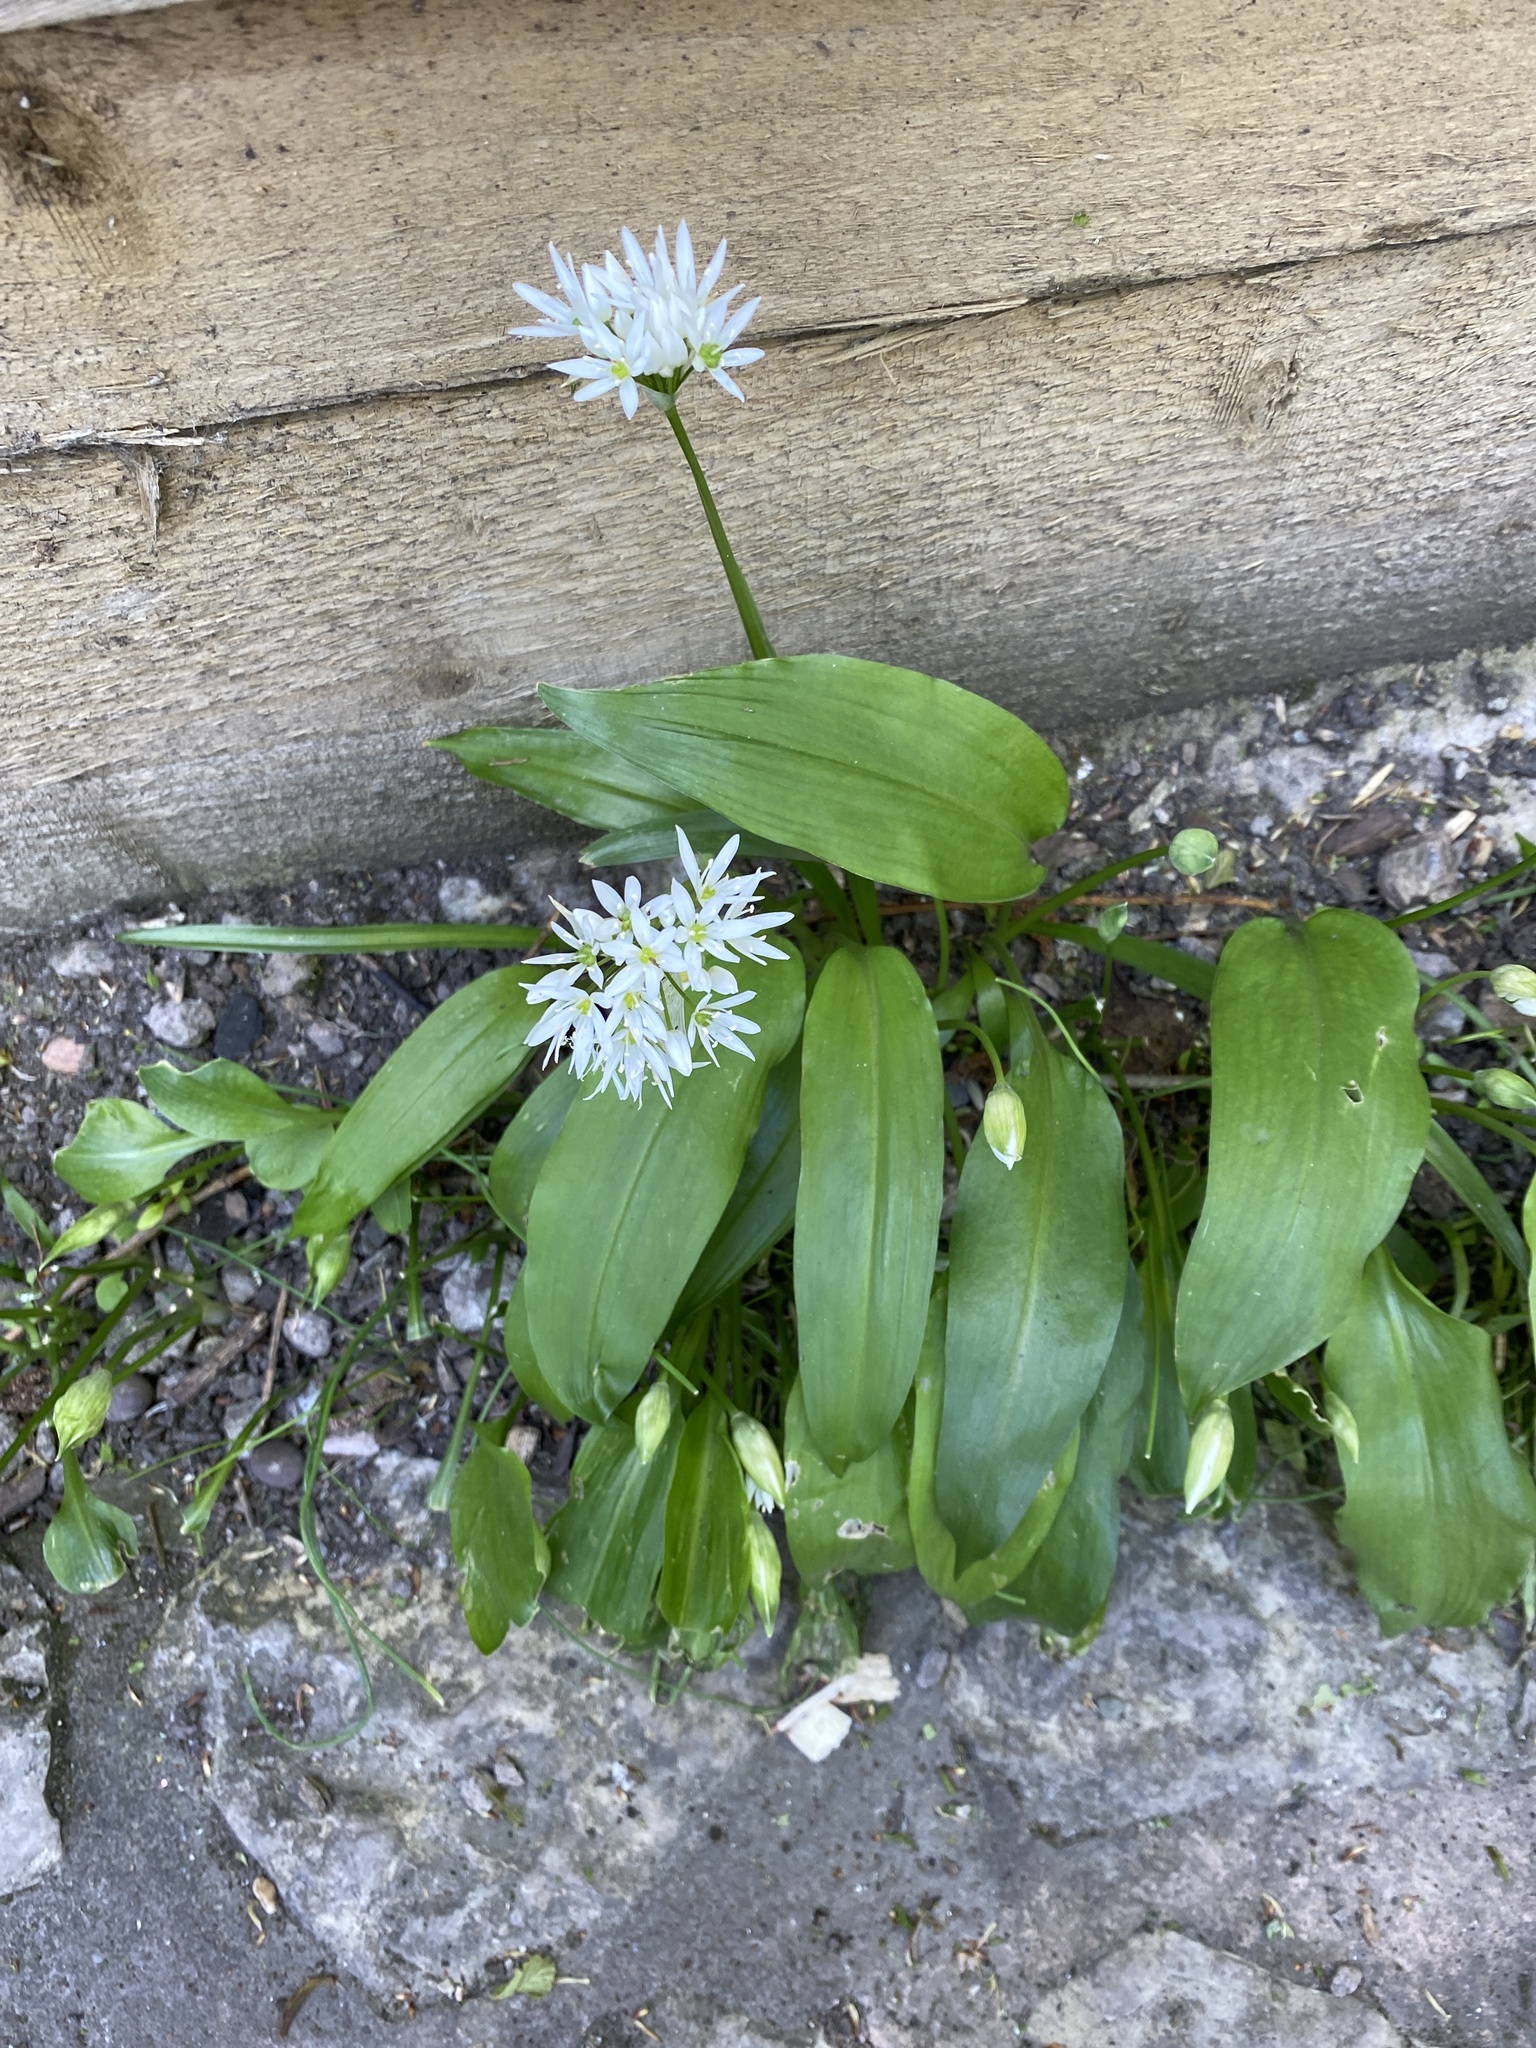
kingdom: Plantae
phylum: Tracheophyta
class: Liliopsida
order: Asparagales
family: Amaryllidaceae
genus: Allium
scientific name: Allium ursinum
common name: Ramsons
